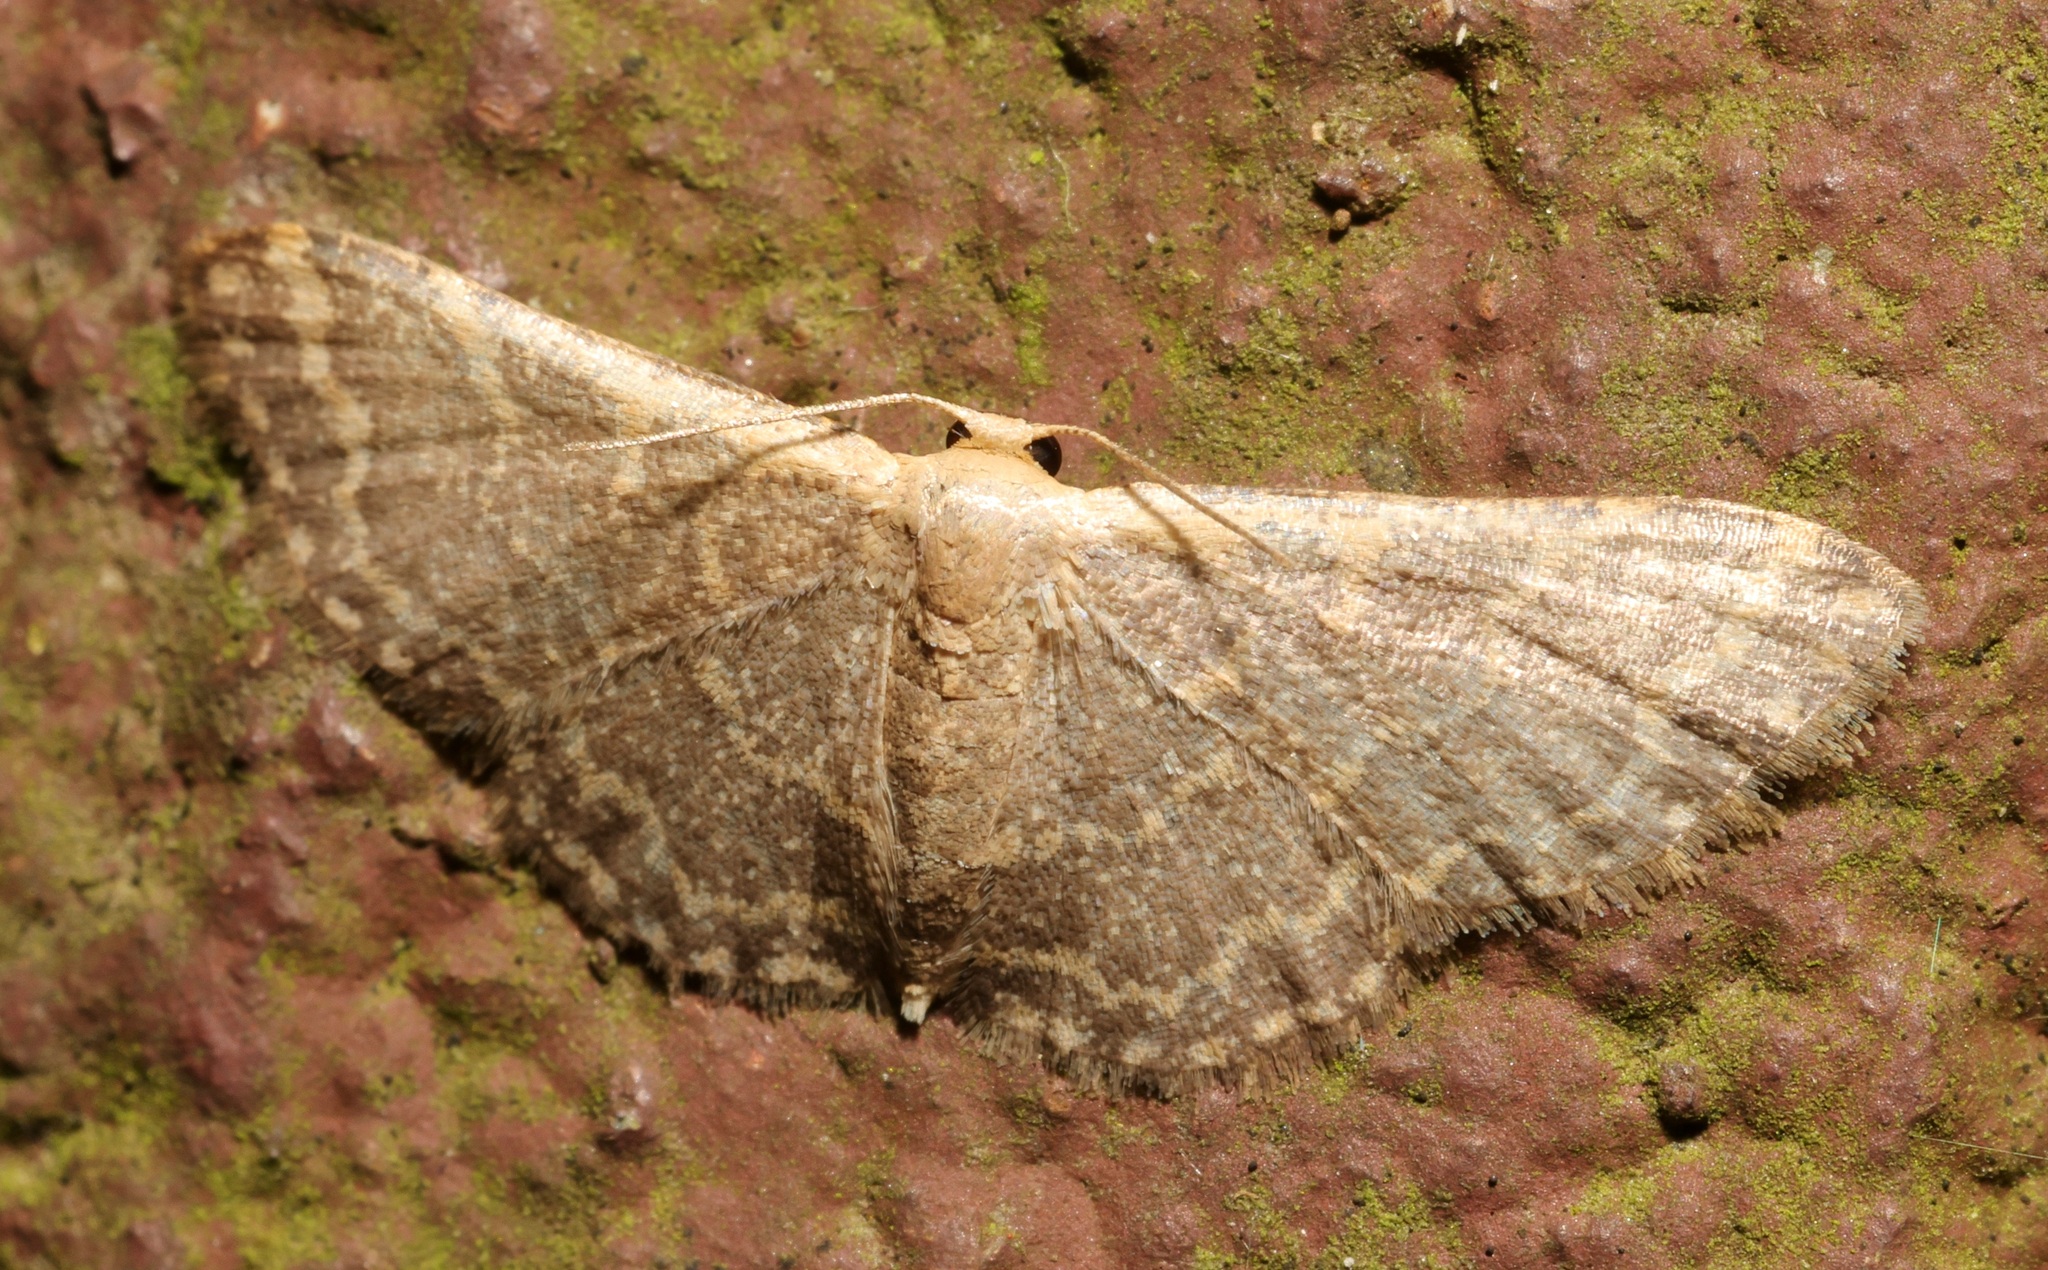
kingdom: Animalia
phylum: Arthropoda
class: Insecta
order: Lepidoptera
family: Geometridae
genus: Idaea
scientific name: Idaea costiguttata
